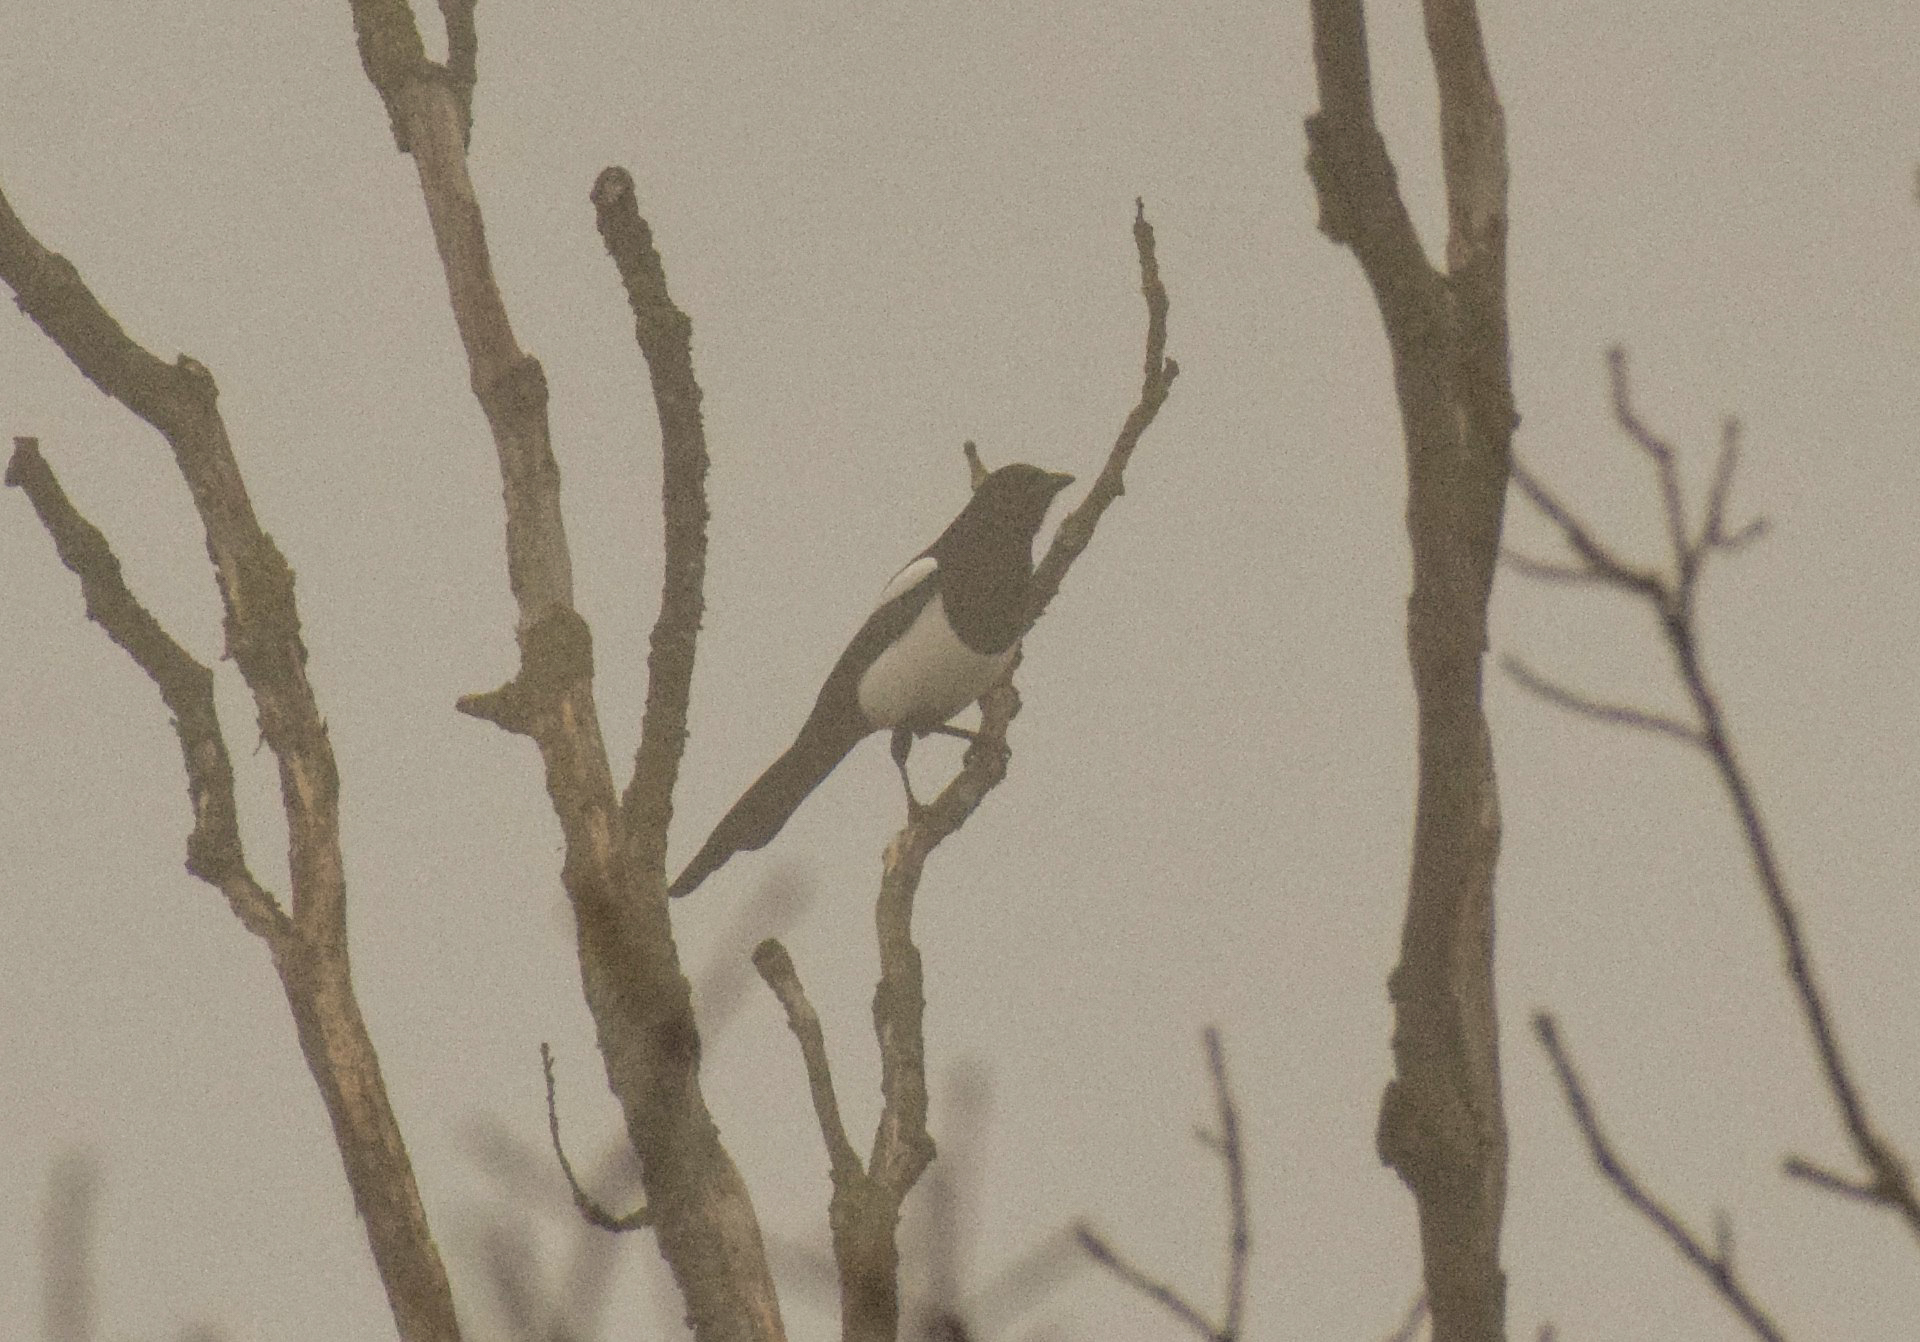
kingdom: Animalia
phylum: Chordata
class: Aves
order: Passeriformes
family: Corvidae
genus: Pica
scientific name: Pica pica
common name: Eurasian magpie
